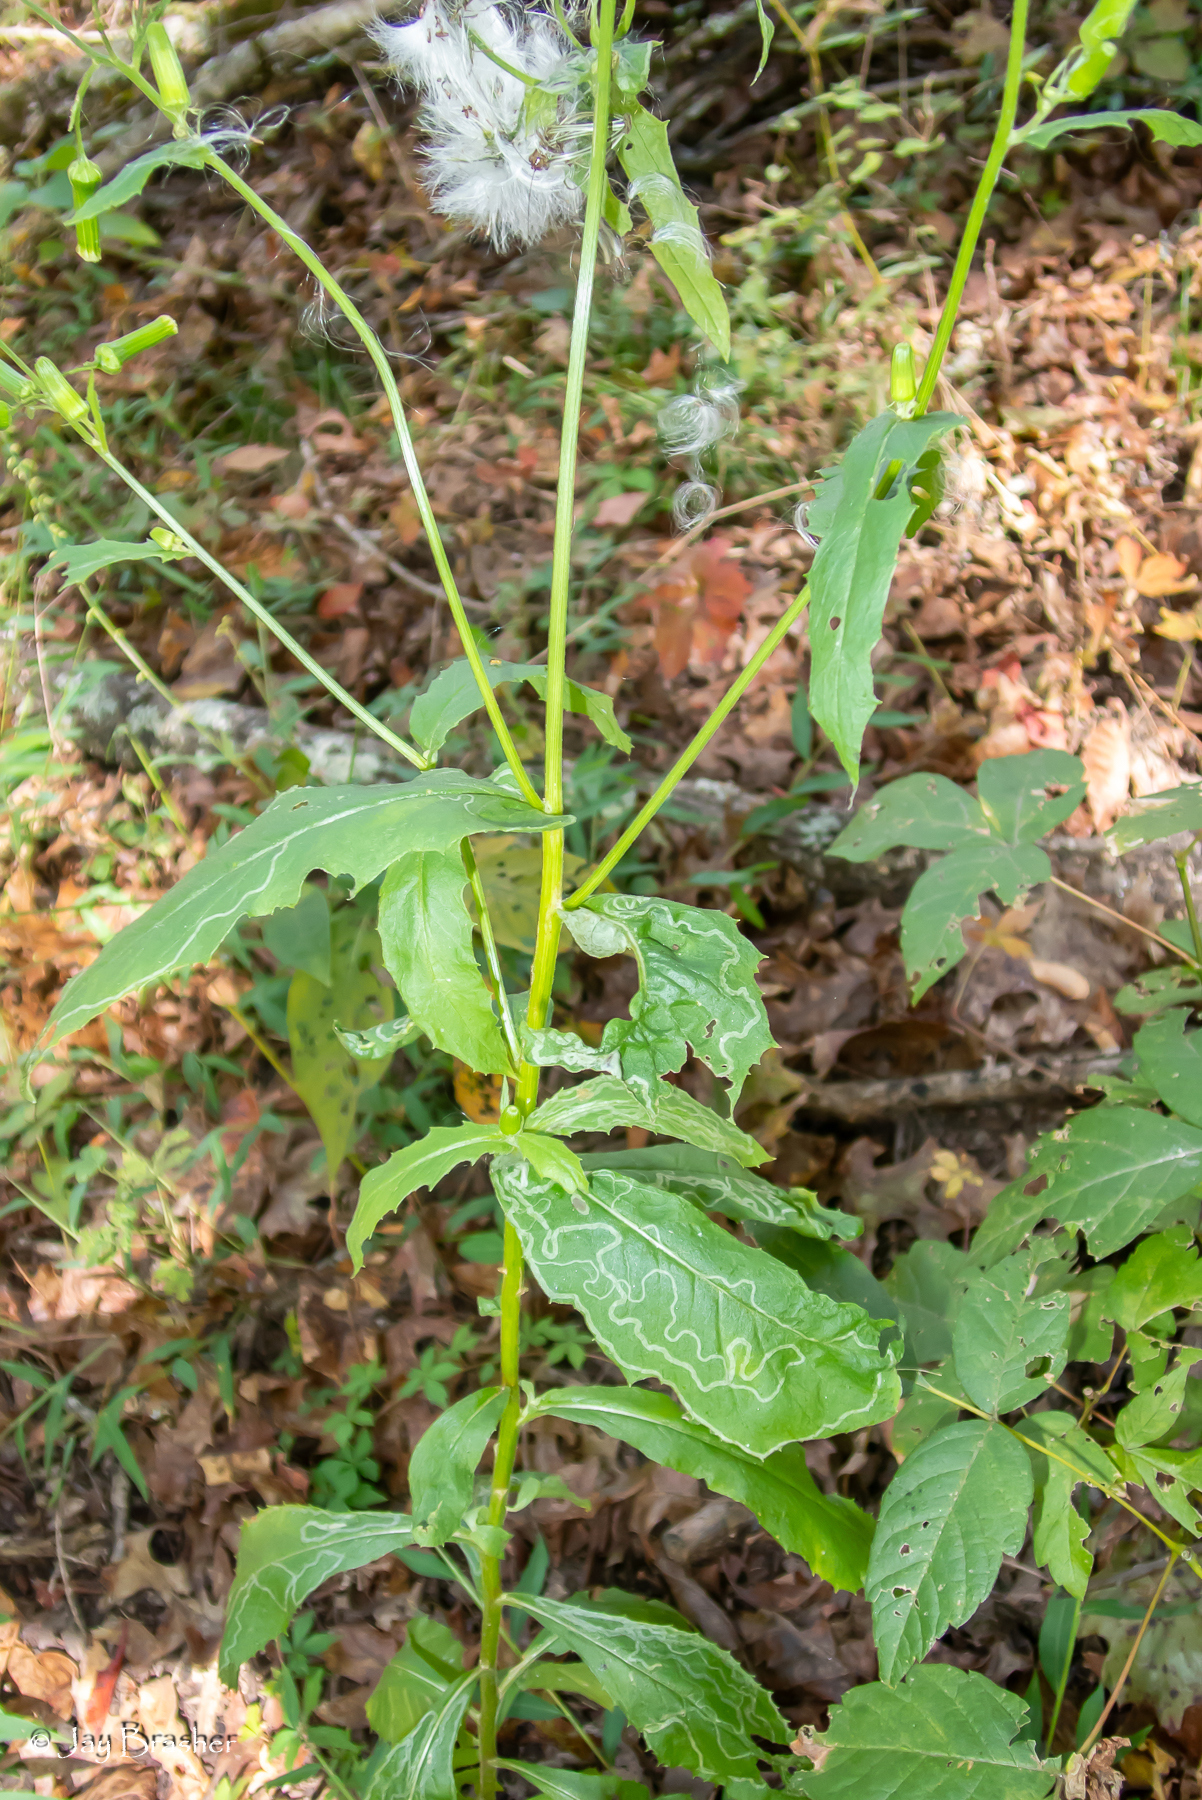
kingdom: Plantae
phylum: Tracheophyta
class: Magnoliopsida
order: Asterales
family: Asteraceae
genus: Erechtites
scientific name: Erechtites hieraciifolius
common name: American burnweed
